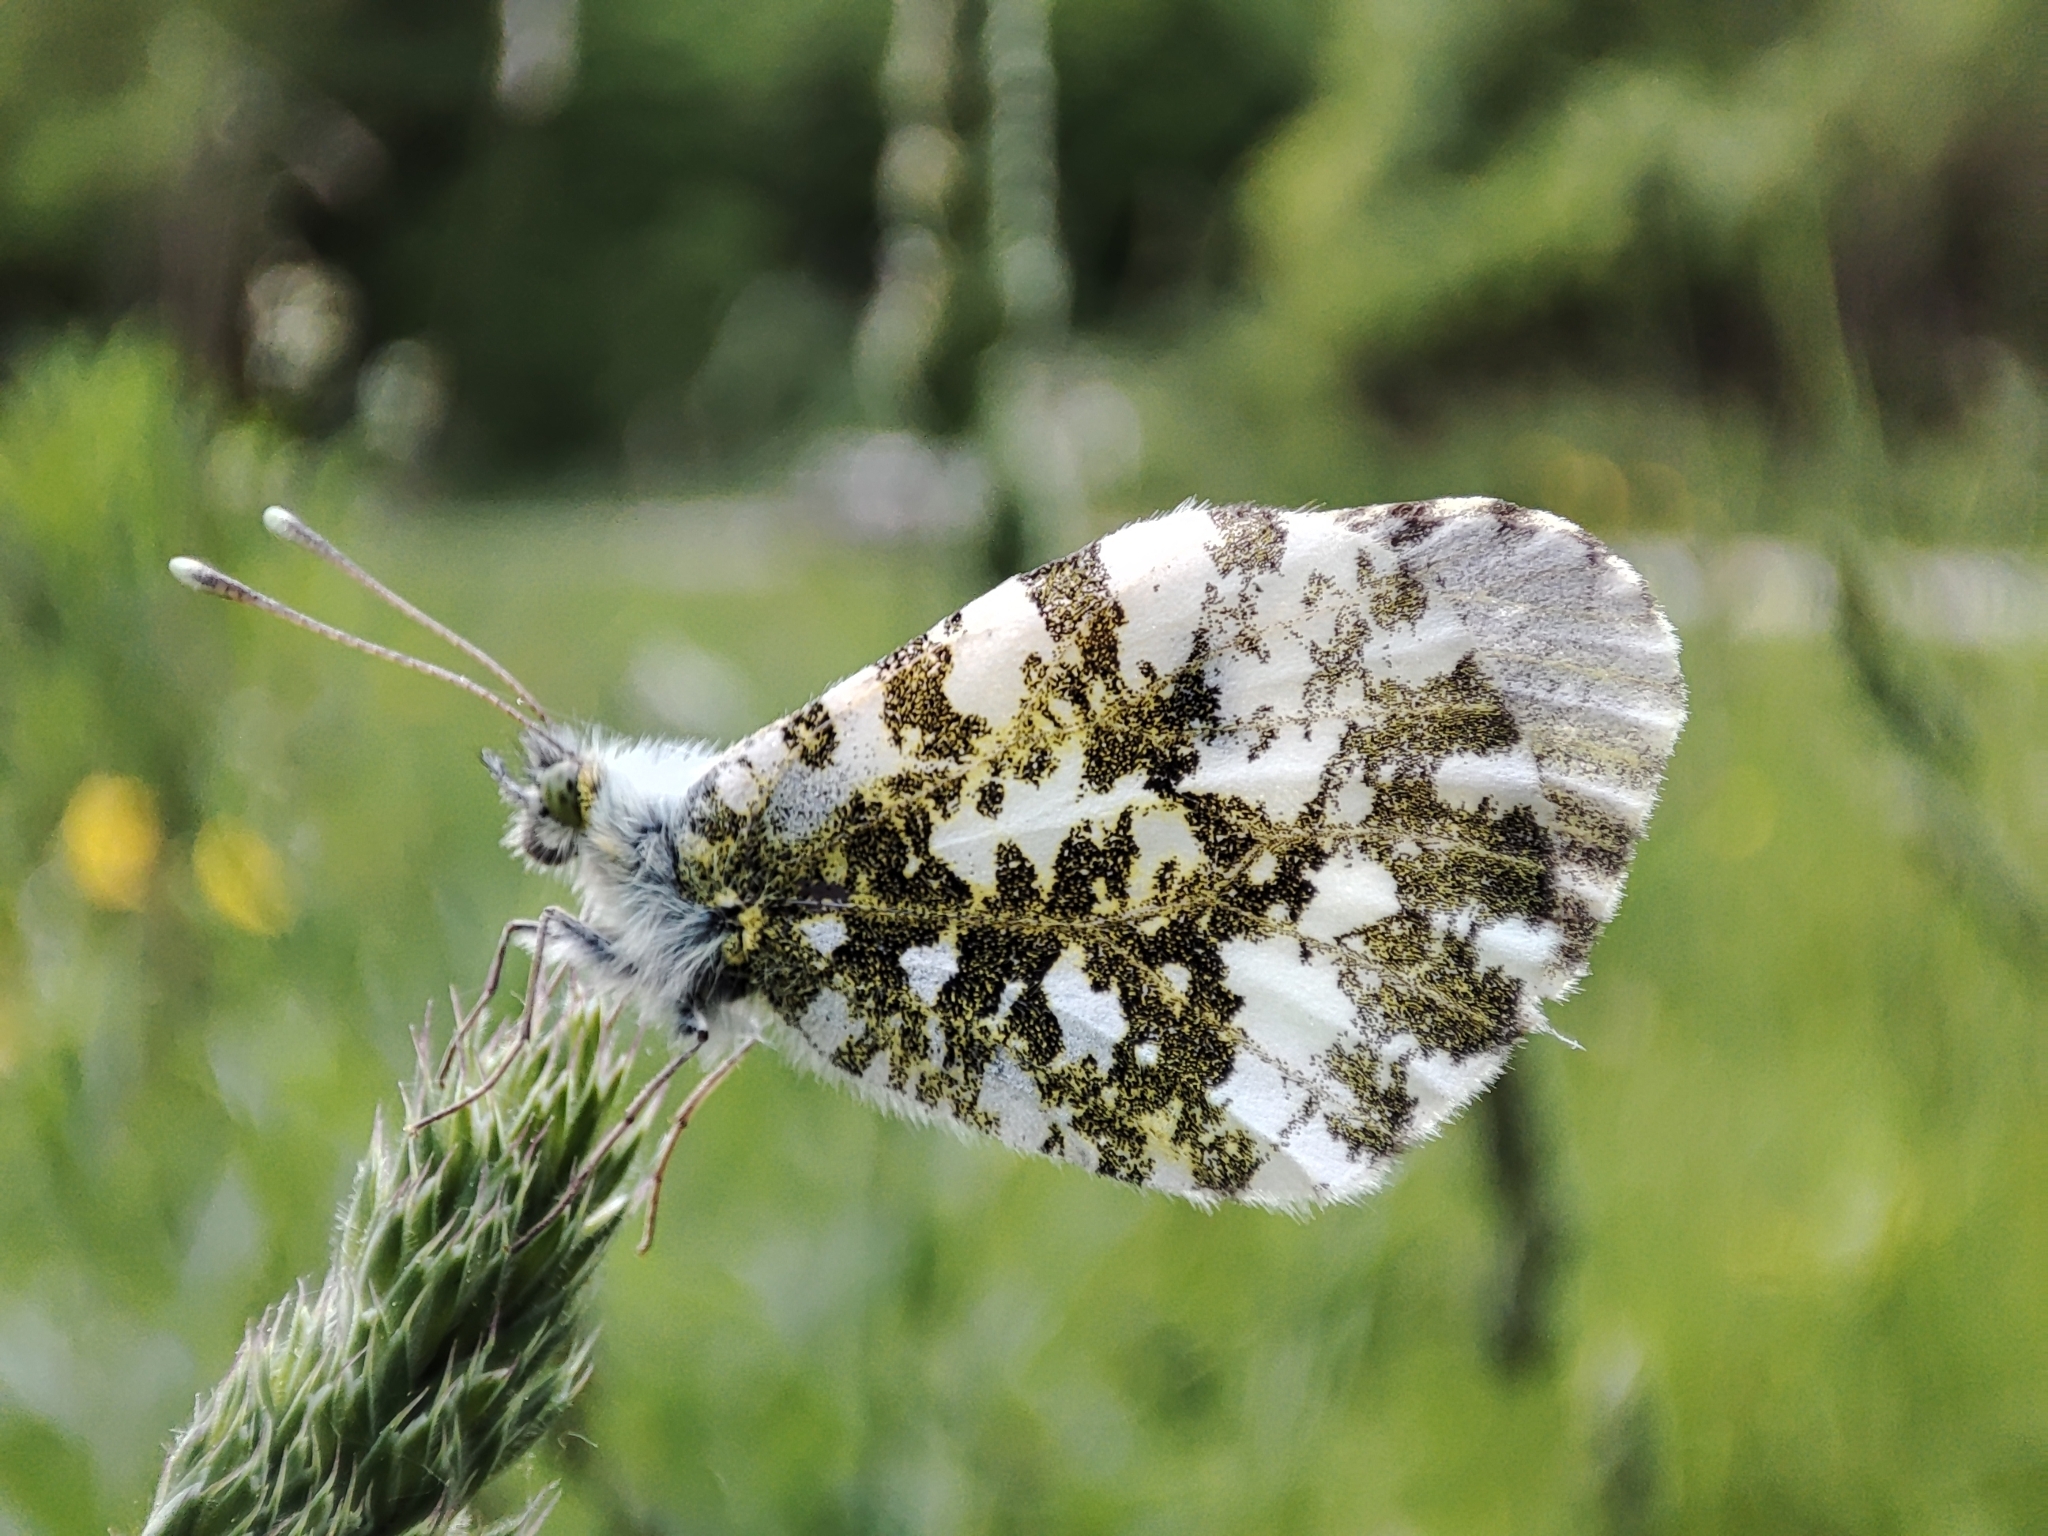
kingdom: Animalia
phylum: Arthropoda
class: Insecta
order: Lepidoptera
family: Pieridae
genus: Anthocharis
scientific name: Anthocharis cardamines
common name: Orange-tip
